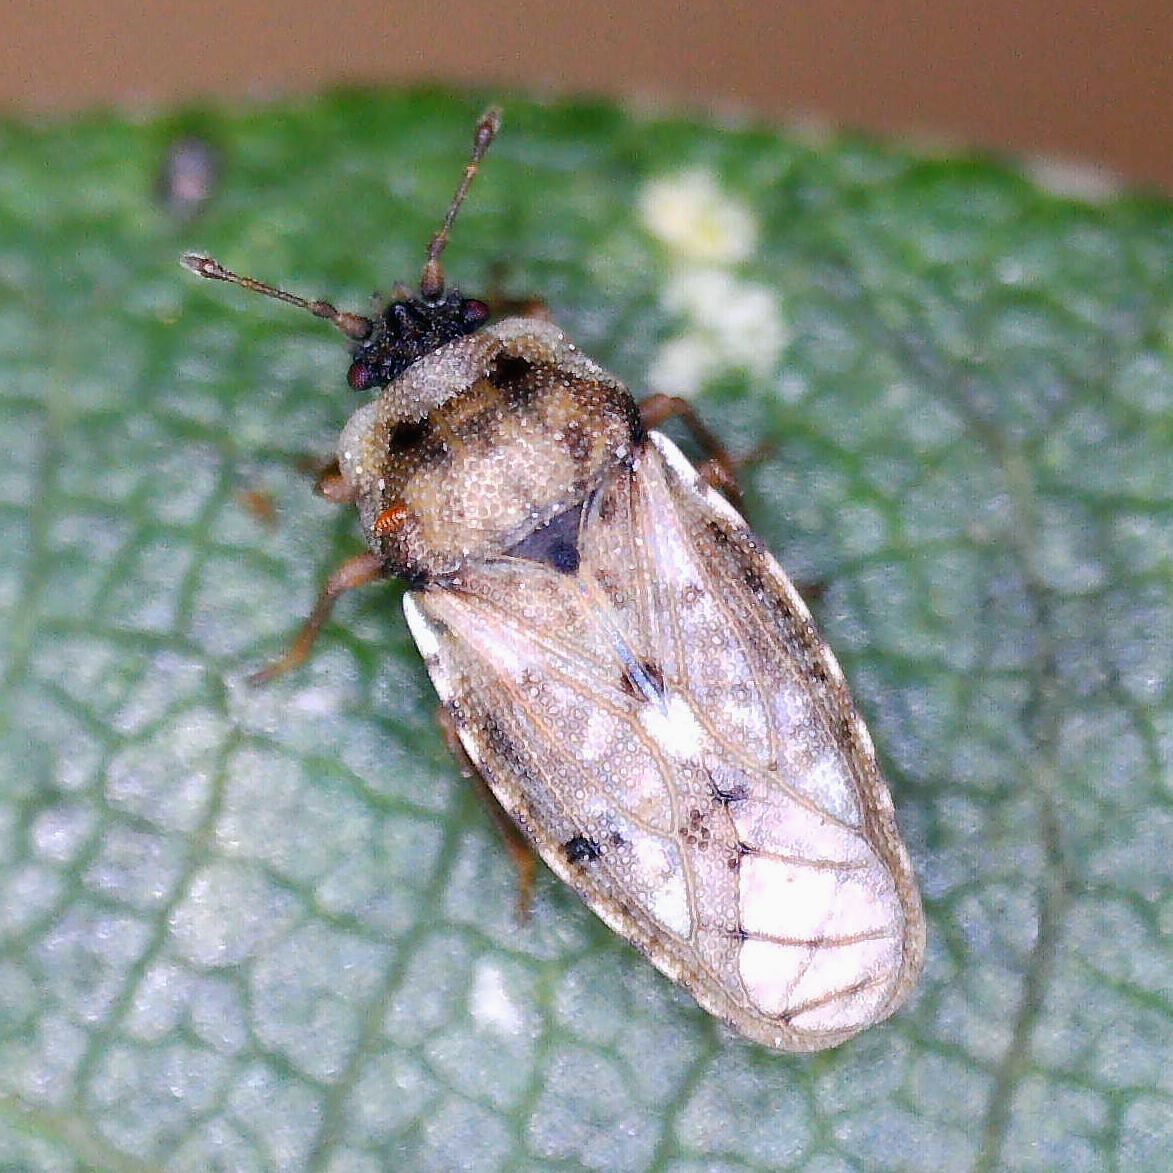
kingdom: Animalia
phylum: Arthropoda
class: Insecta
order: Hemiptera
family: Piesmatidae
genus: Piesma
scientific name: Piesma maculata
